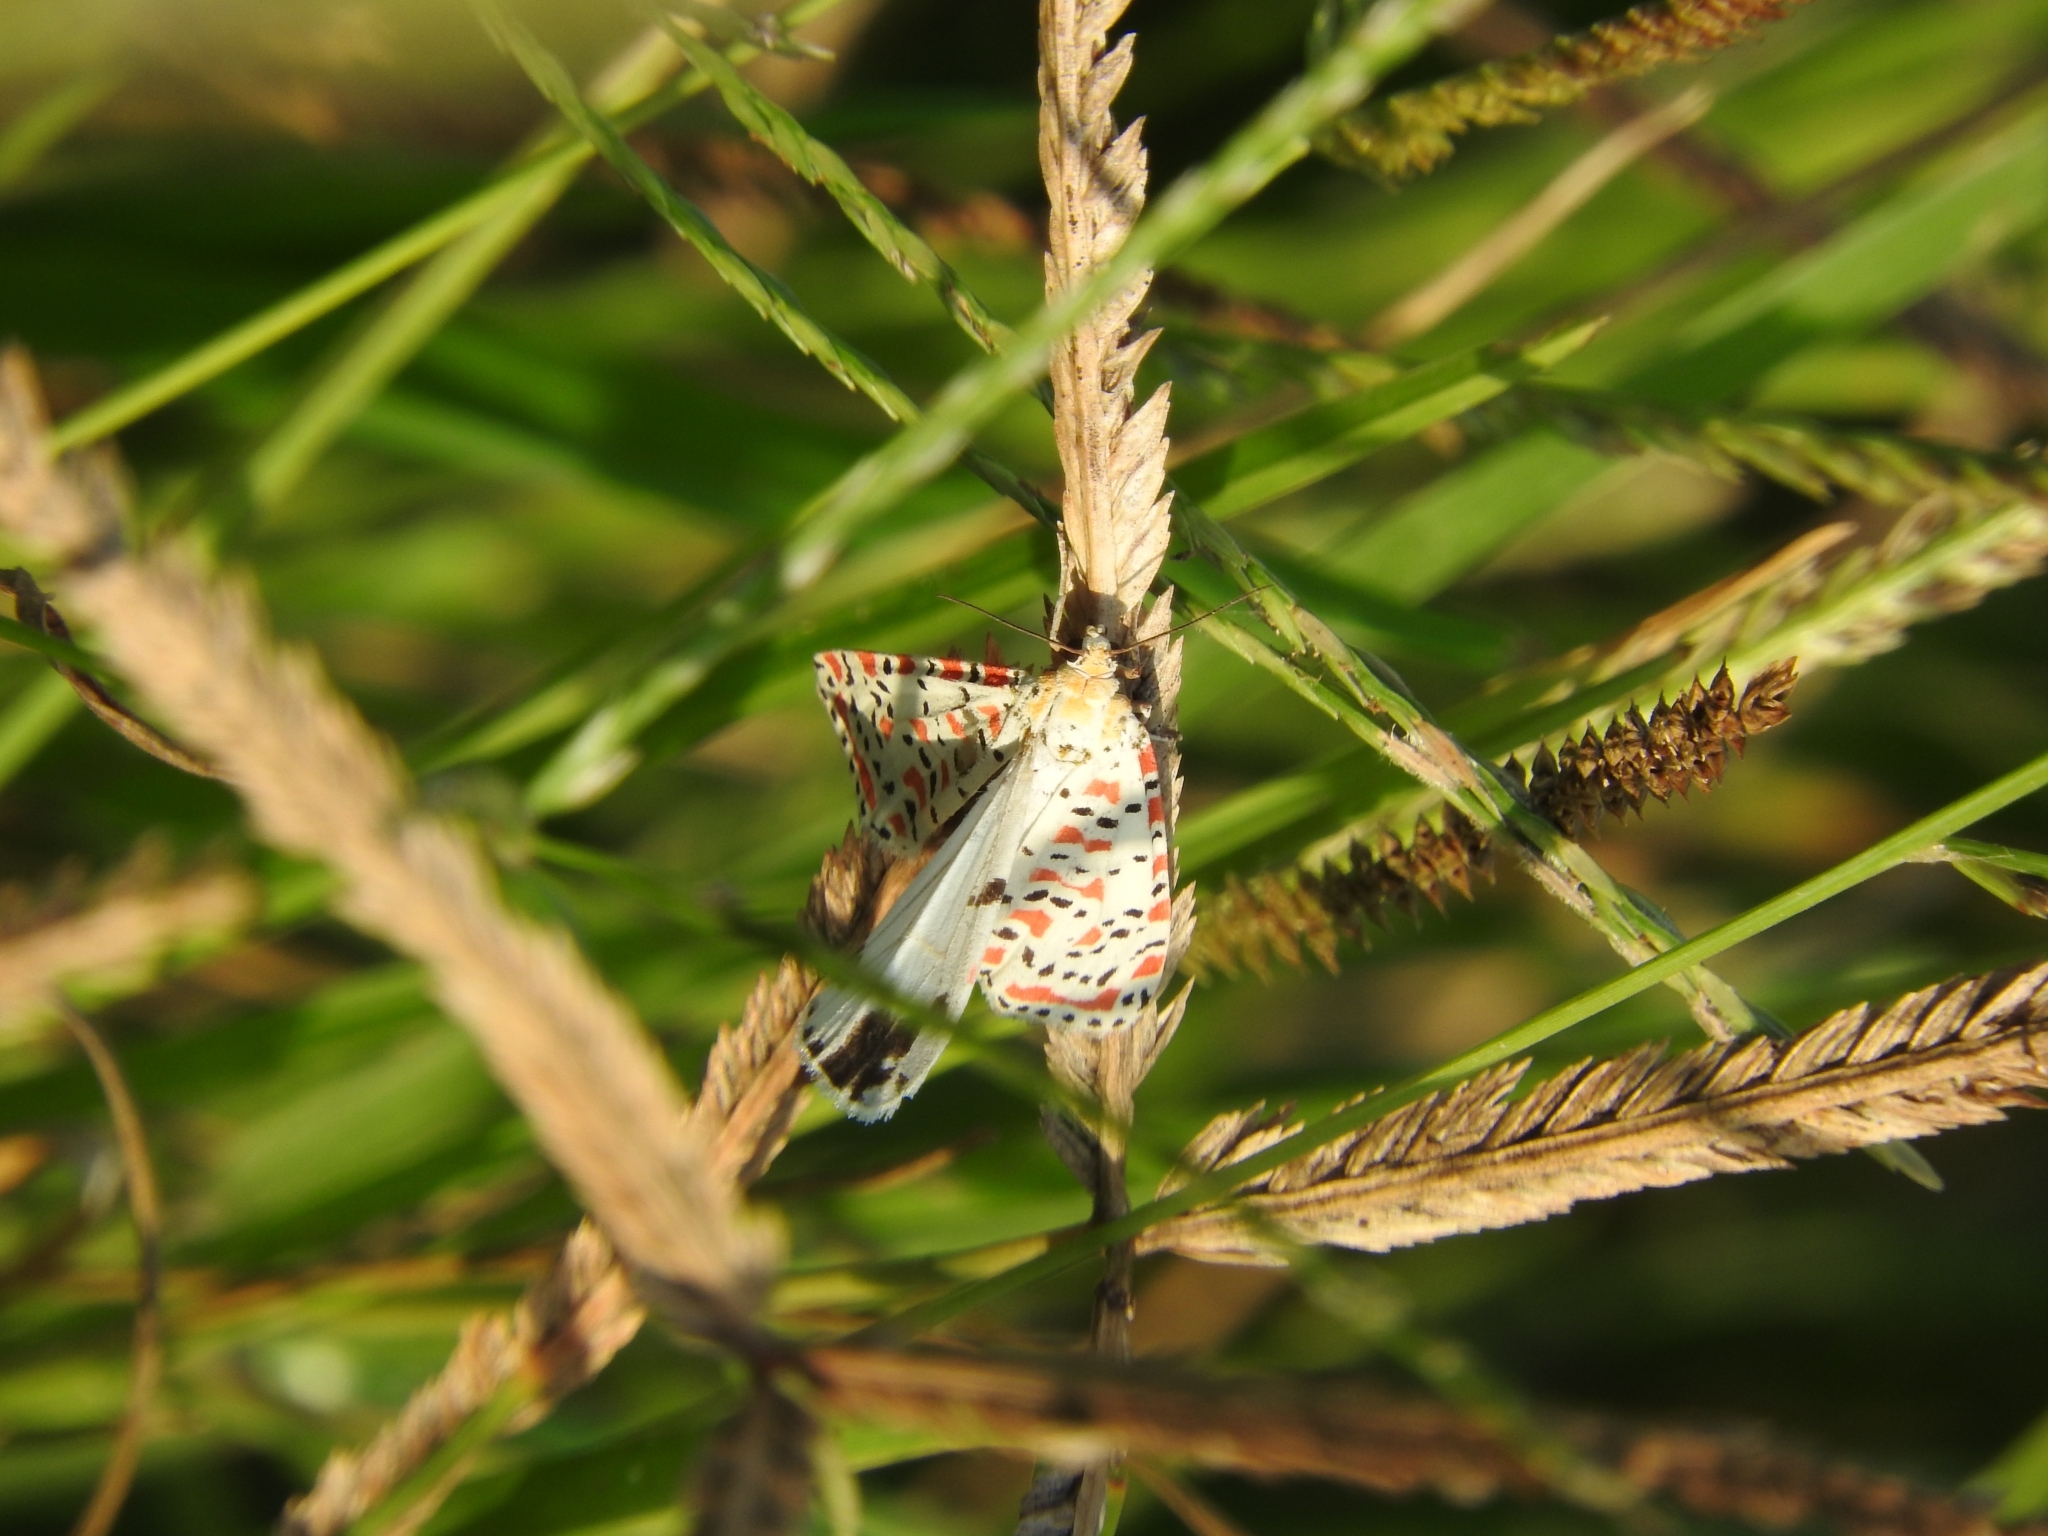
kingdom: Animalia
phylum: Arthropoda
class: Insecta
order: Lepidoptera
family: Erebidae
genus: Utetheisa
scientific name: Utetheisa pulchella
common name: Crimson speckled
